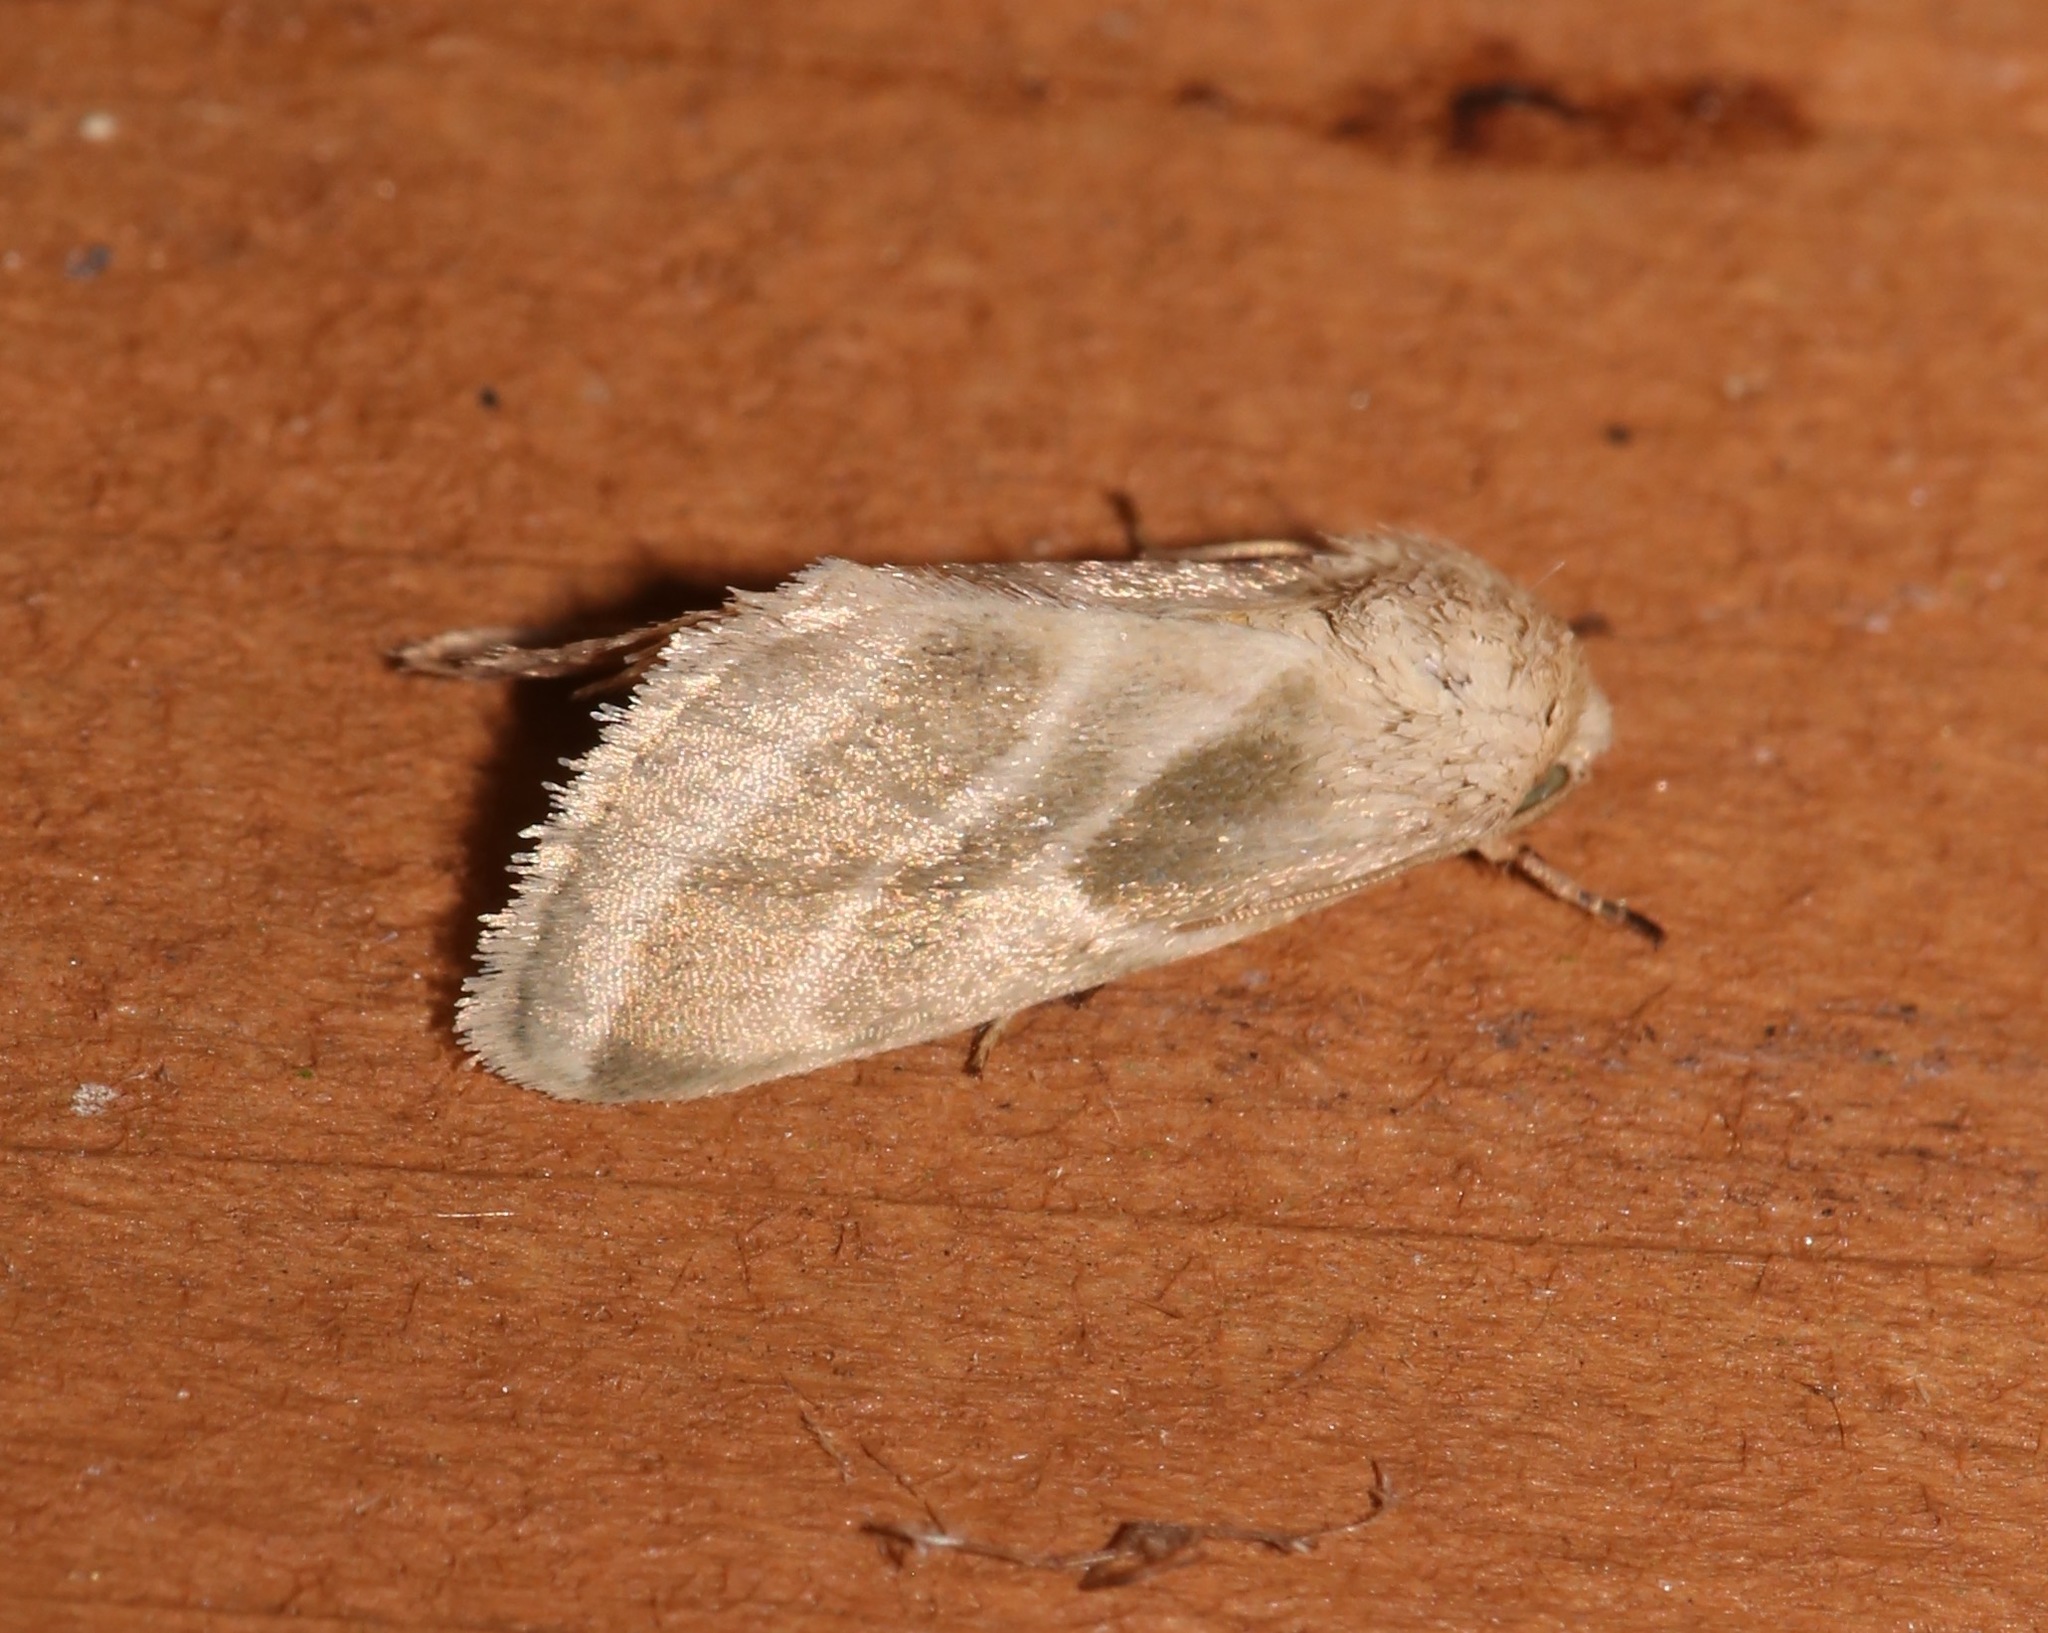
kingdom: Animalia
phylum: Arthropoda
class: Insecta
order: Lepidoptera
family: Noctuidae
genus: Schinia
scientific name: Schinia trifascia
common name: Three-lined flower moth
